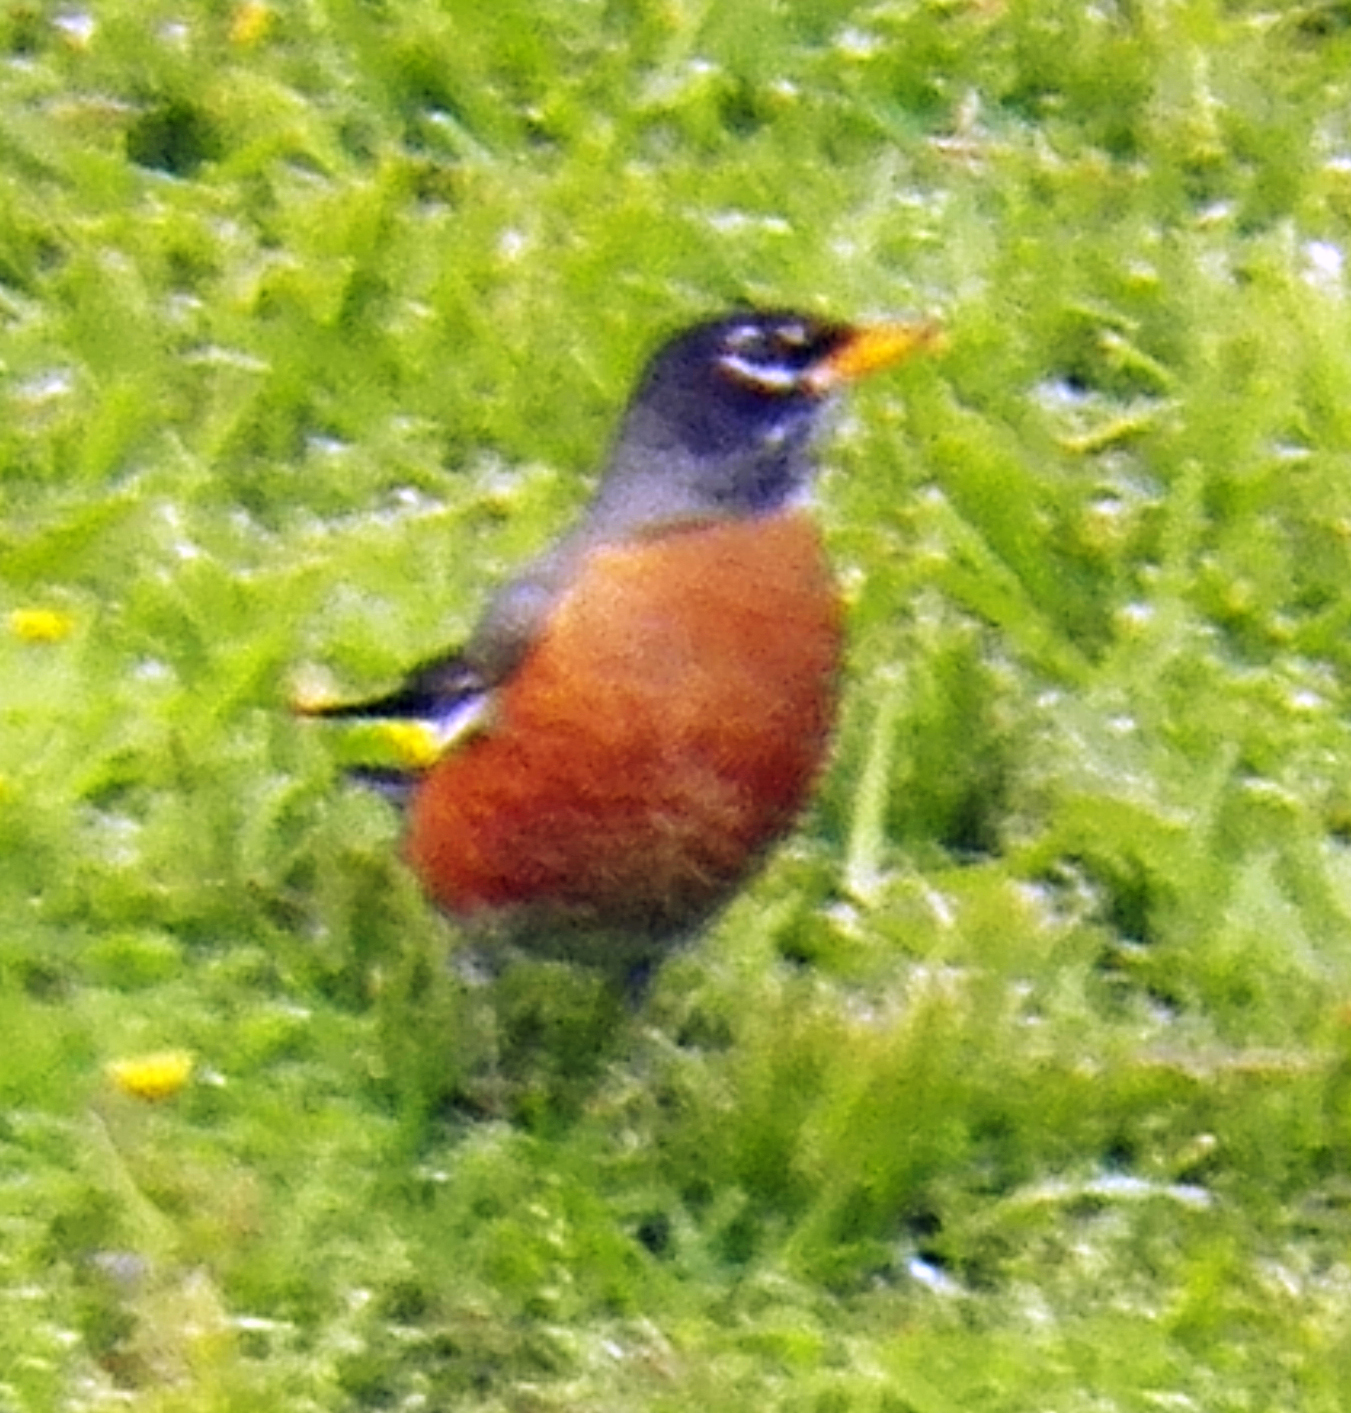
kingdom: Animalia
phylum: Chordata
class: Aves
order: Passeriformes
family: Turdidae
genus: Turdus
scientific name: Turdus migratorius
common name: American robin
